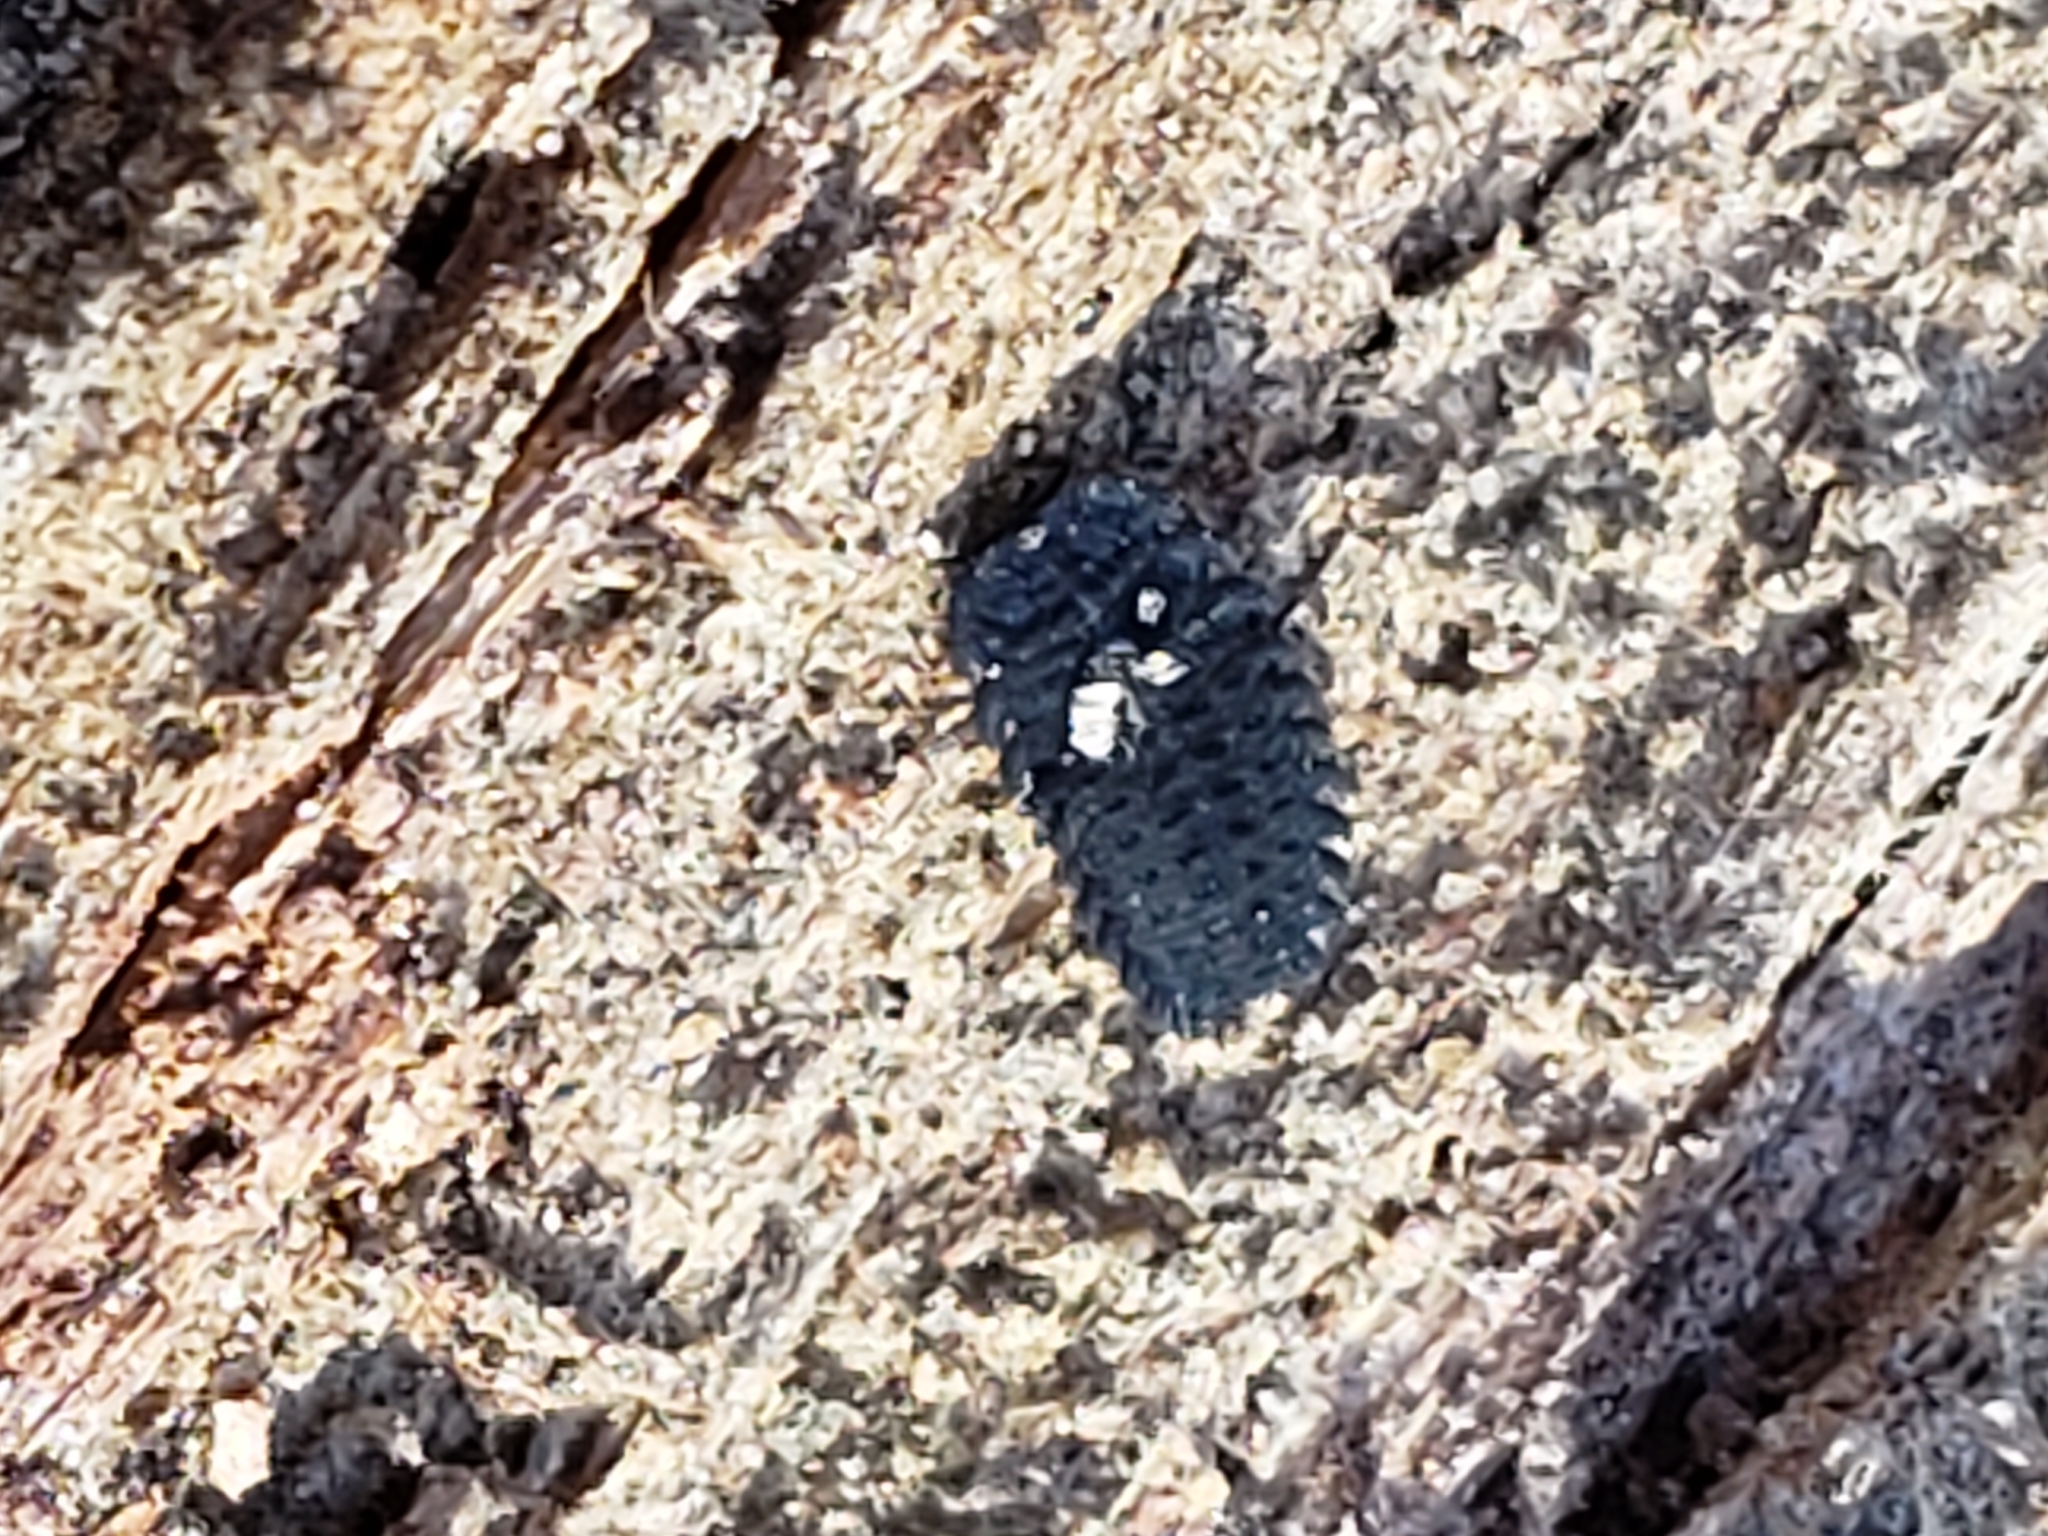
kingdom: Animalia
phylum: Arthropoda
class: Insecta
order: Coleoptera
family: Endomychidae
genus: Endomychus
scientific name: Endomychus biguttatus
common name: Handsome fungus beetle
